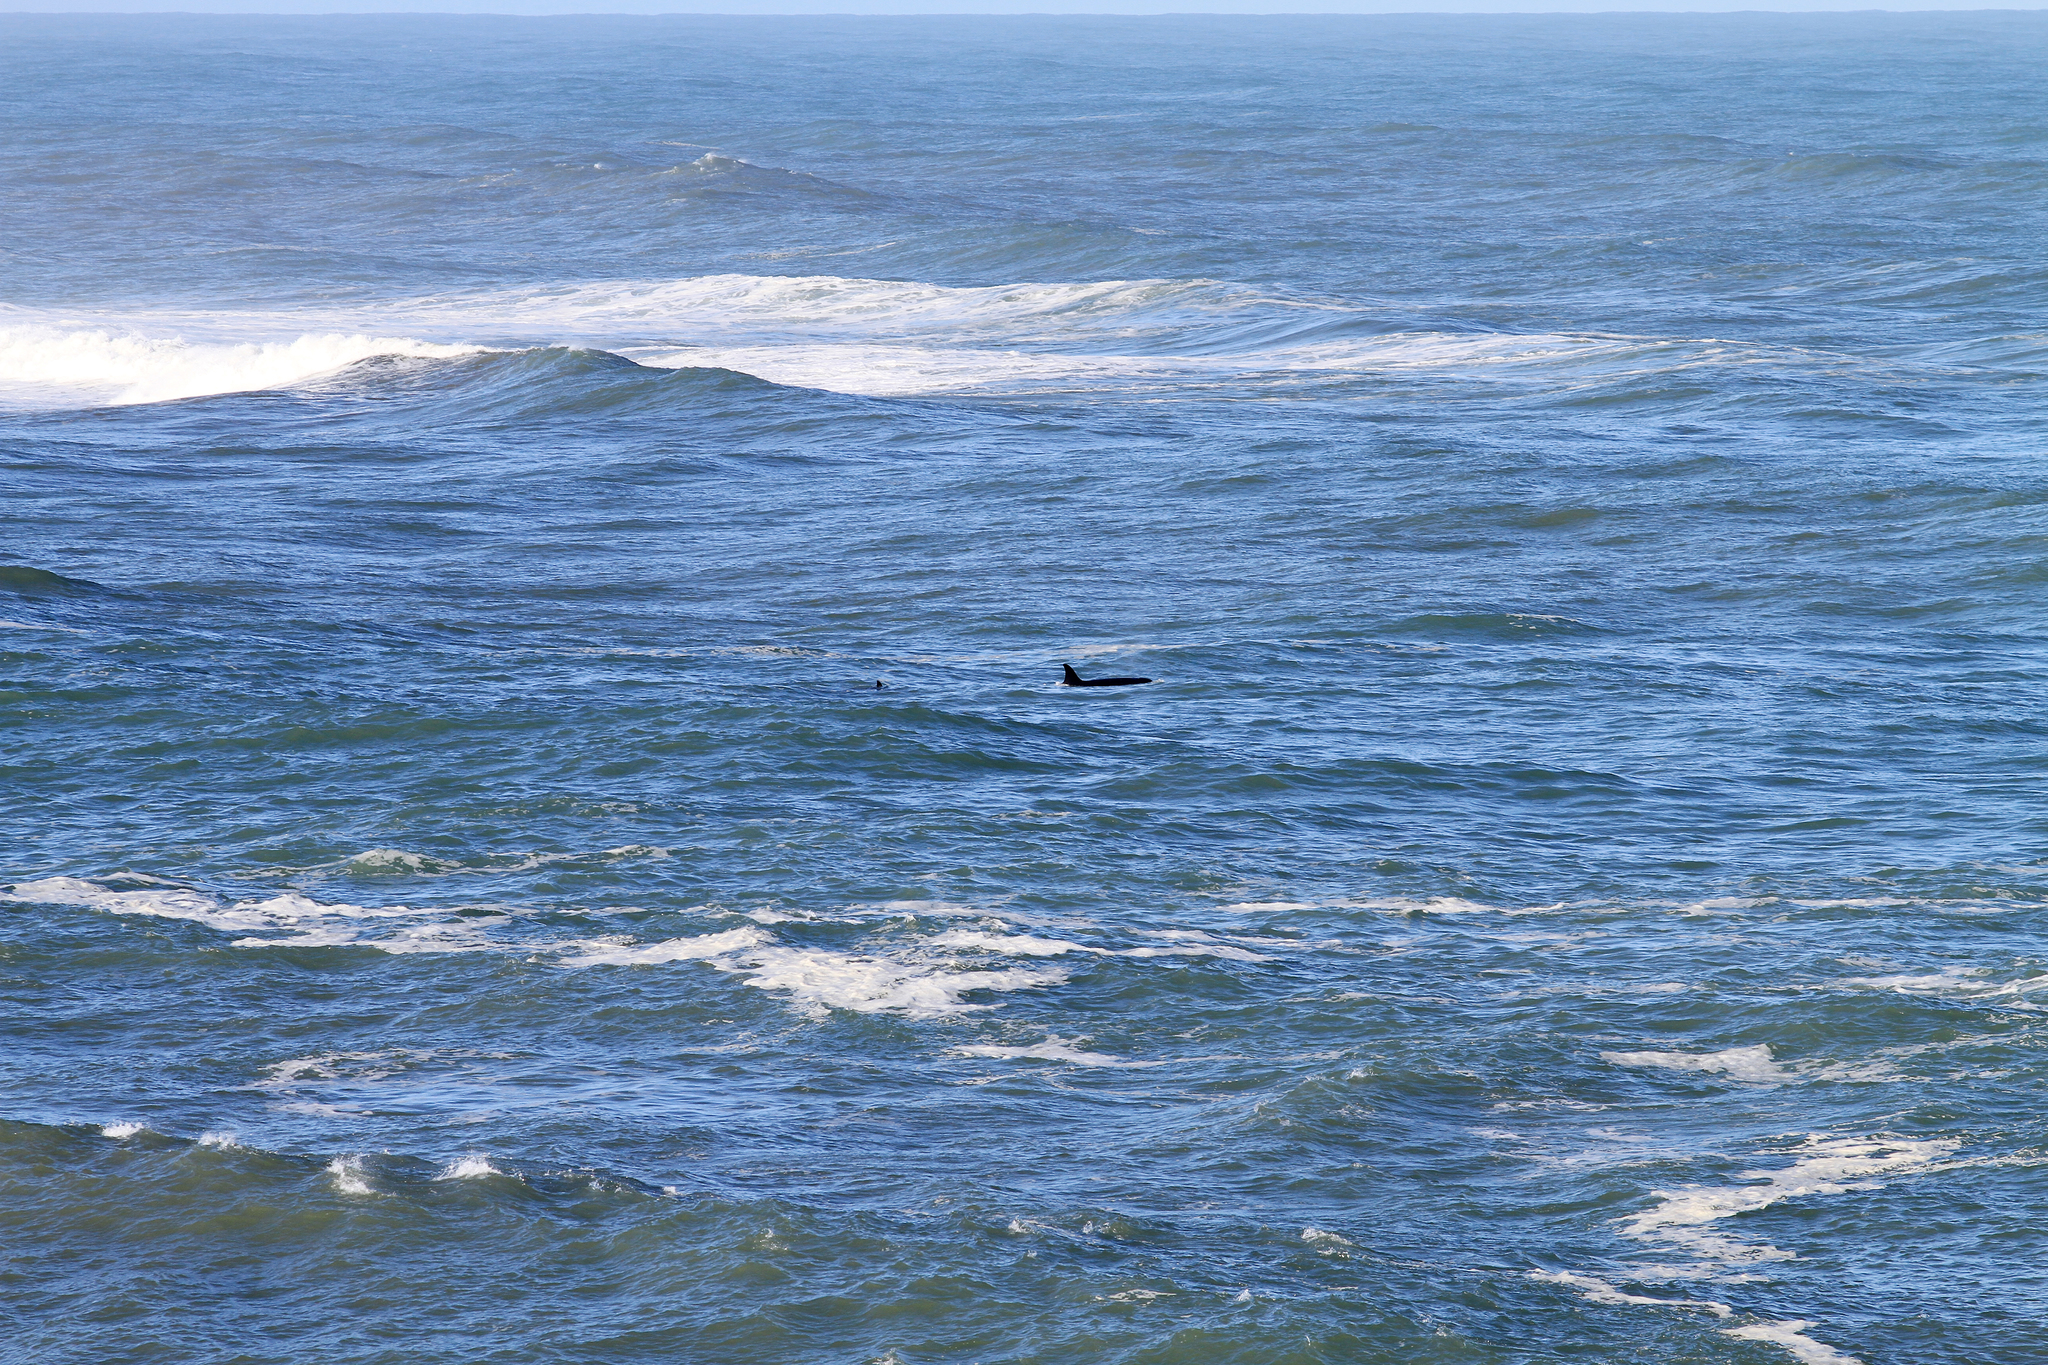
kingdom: Animalia
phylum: Chordata
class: Mammalia
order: Cetacea
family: Delphinidae
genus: Orcinus
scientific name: Orcinus orca
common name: Killer whale
